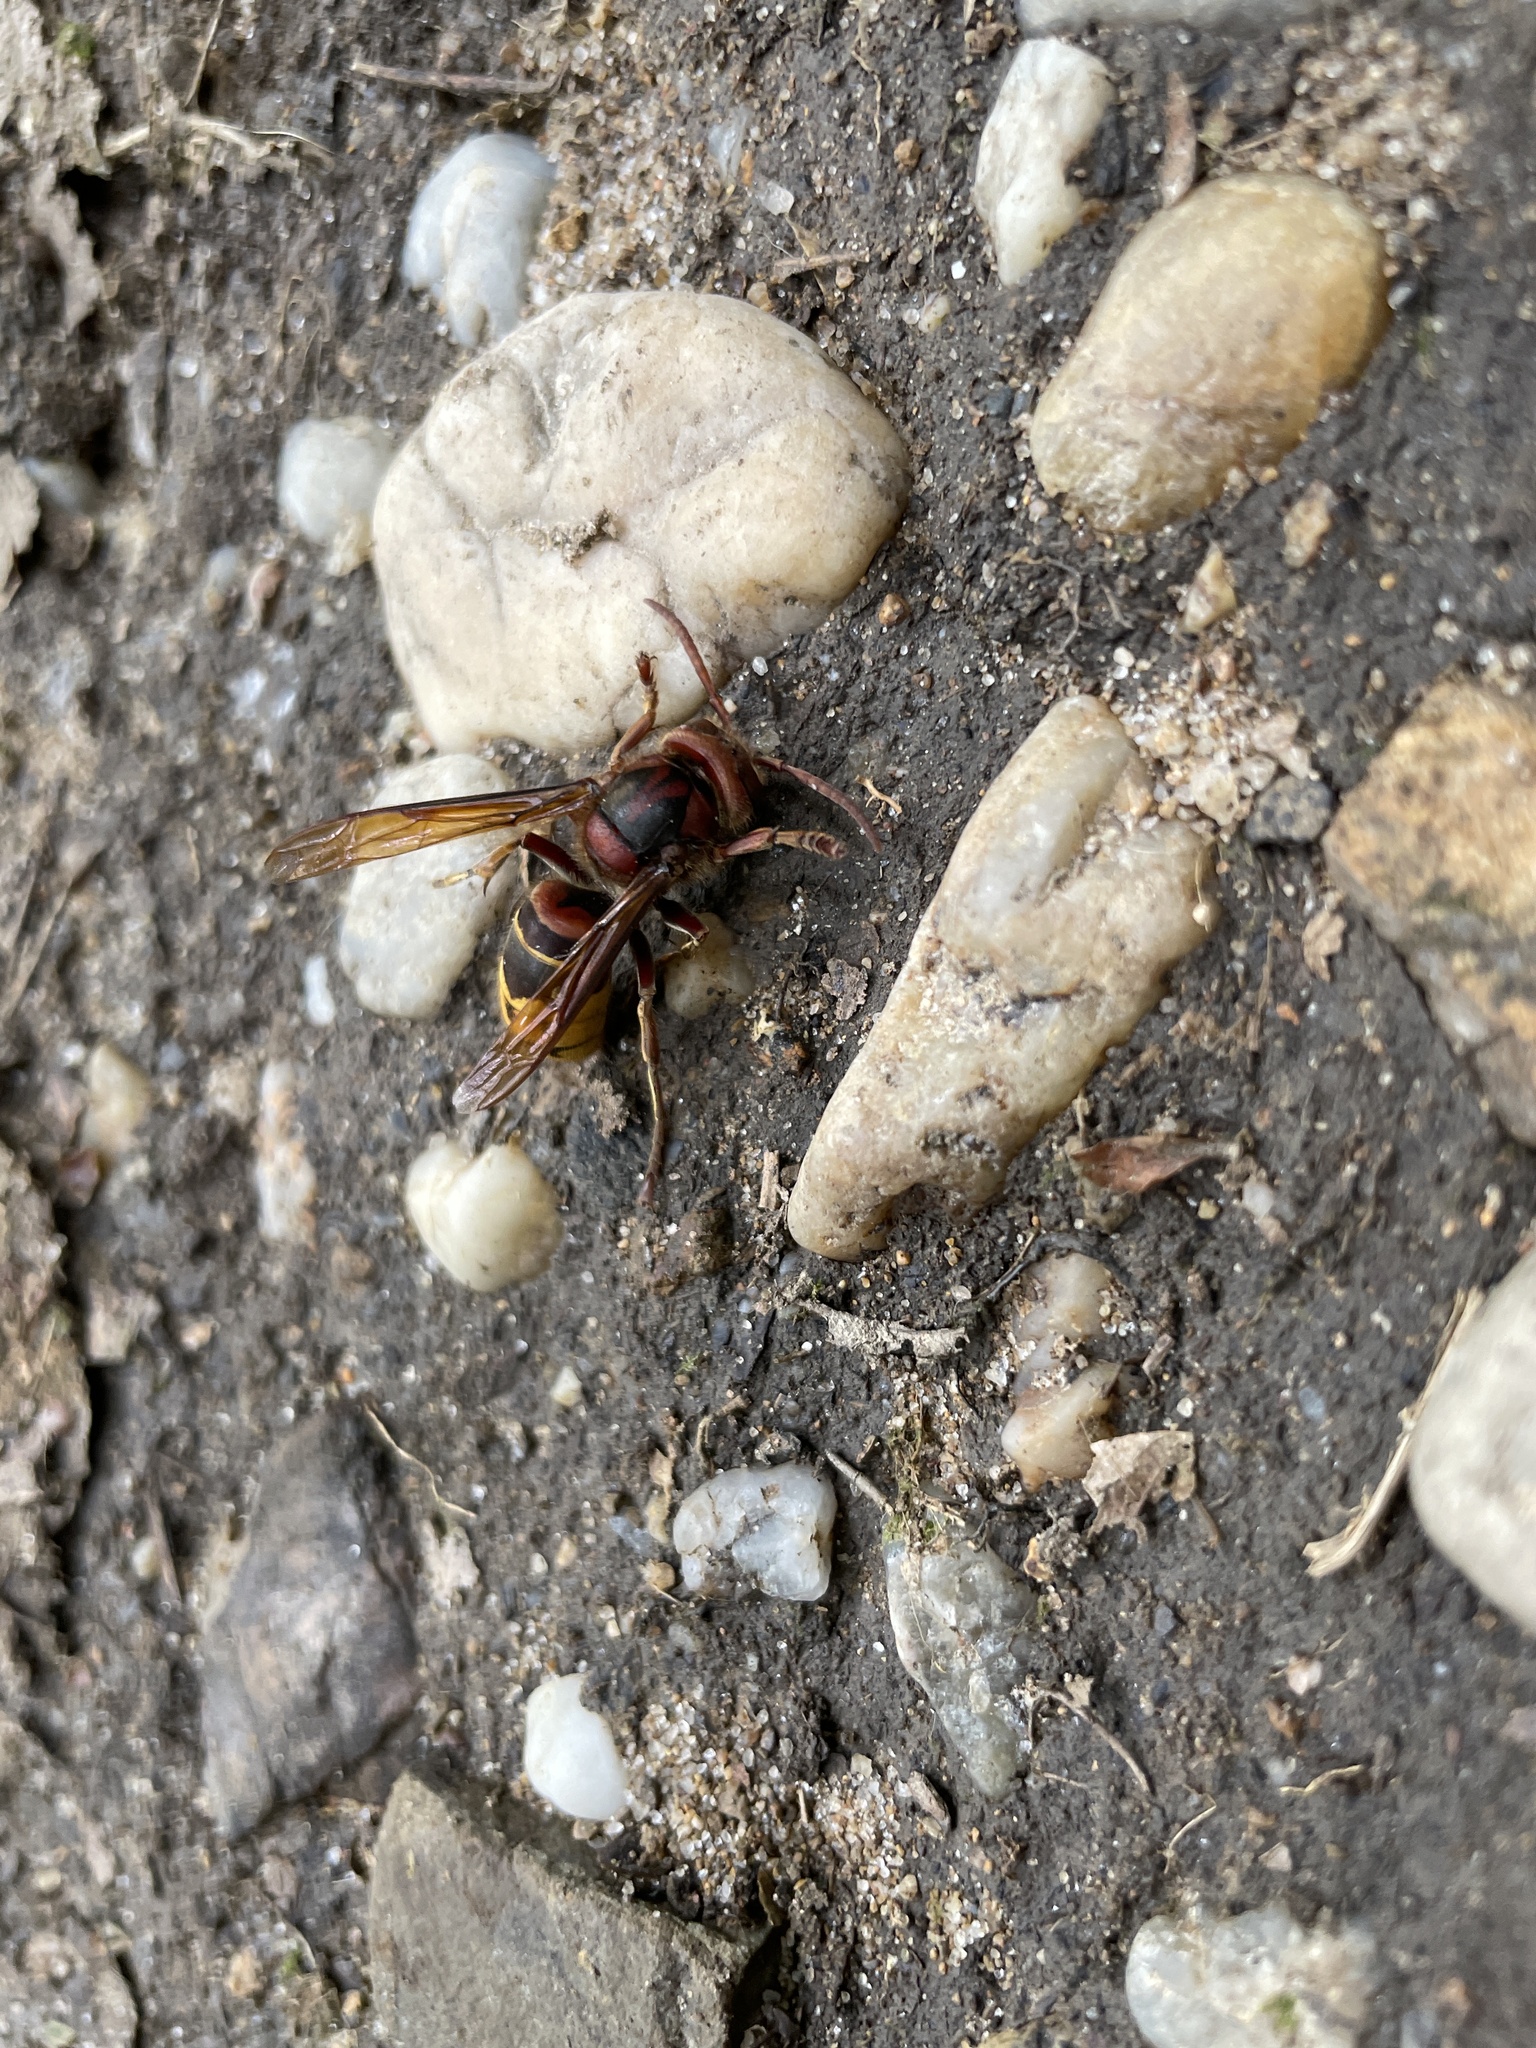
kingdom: Animalia
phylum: Arthropoda
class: Insecta
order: Hymenoptera
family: Vespidae
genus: Vespa
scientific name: Vespa crabro
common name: Hornet
